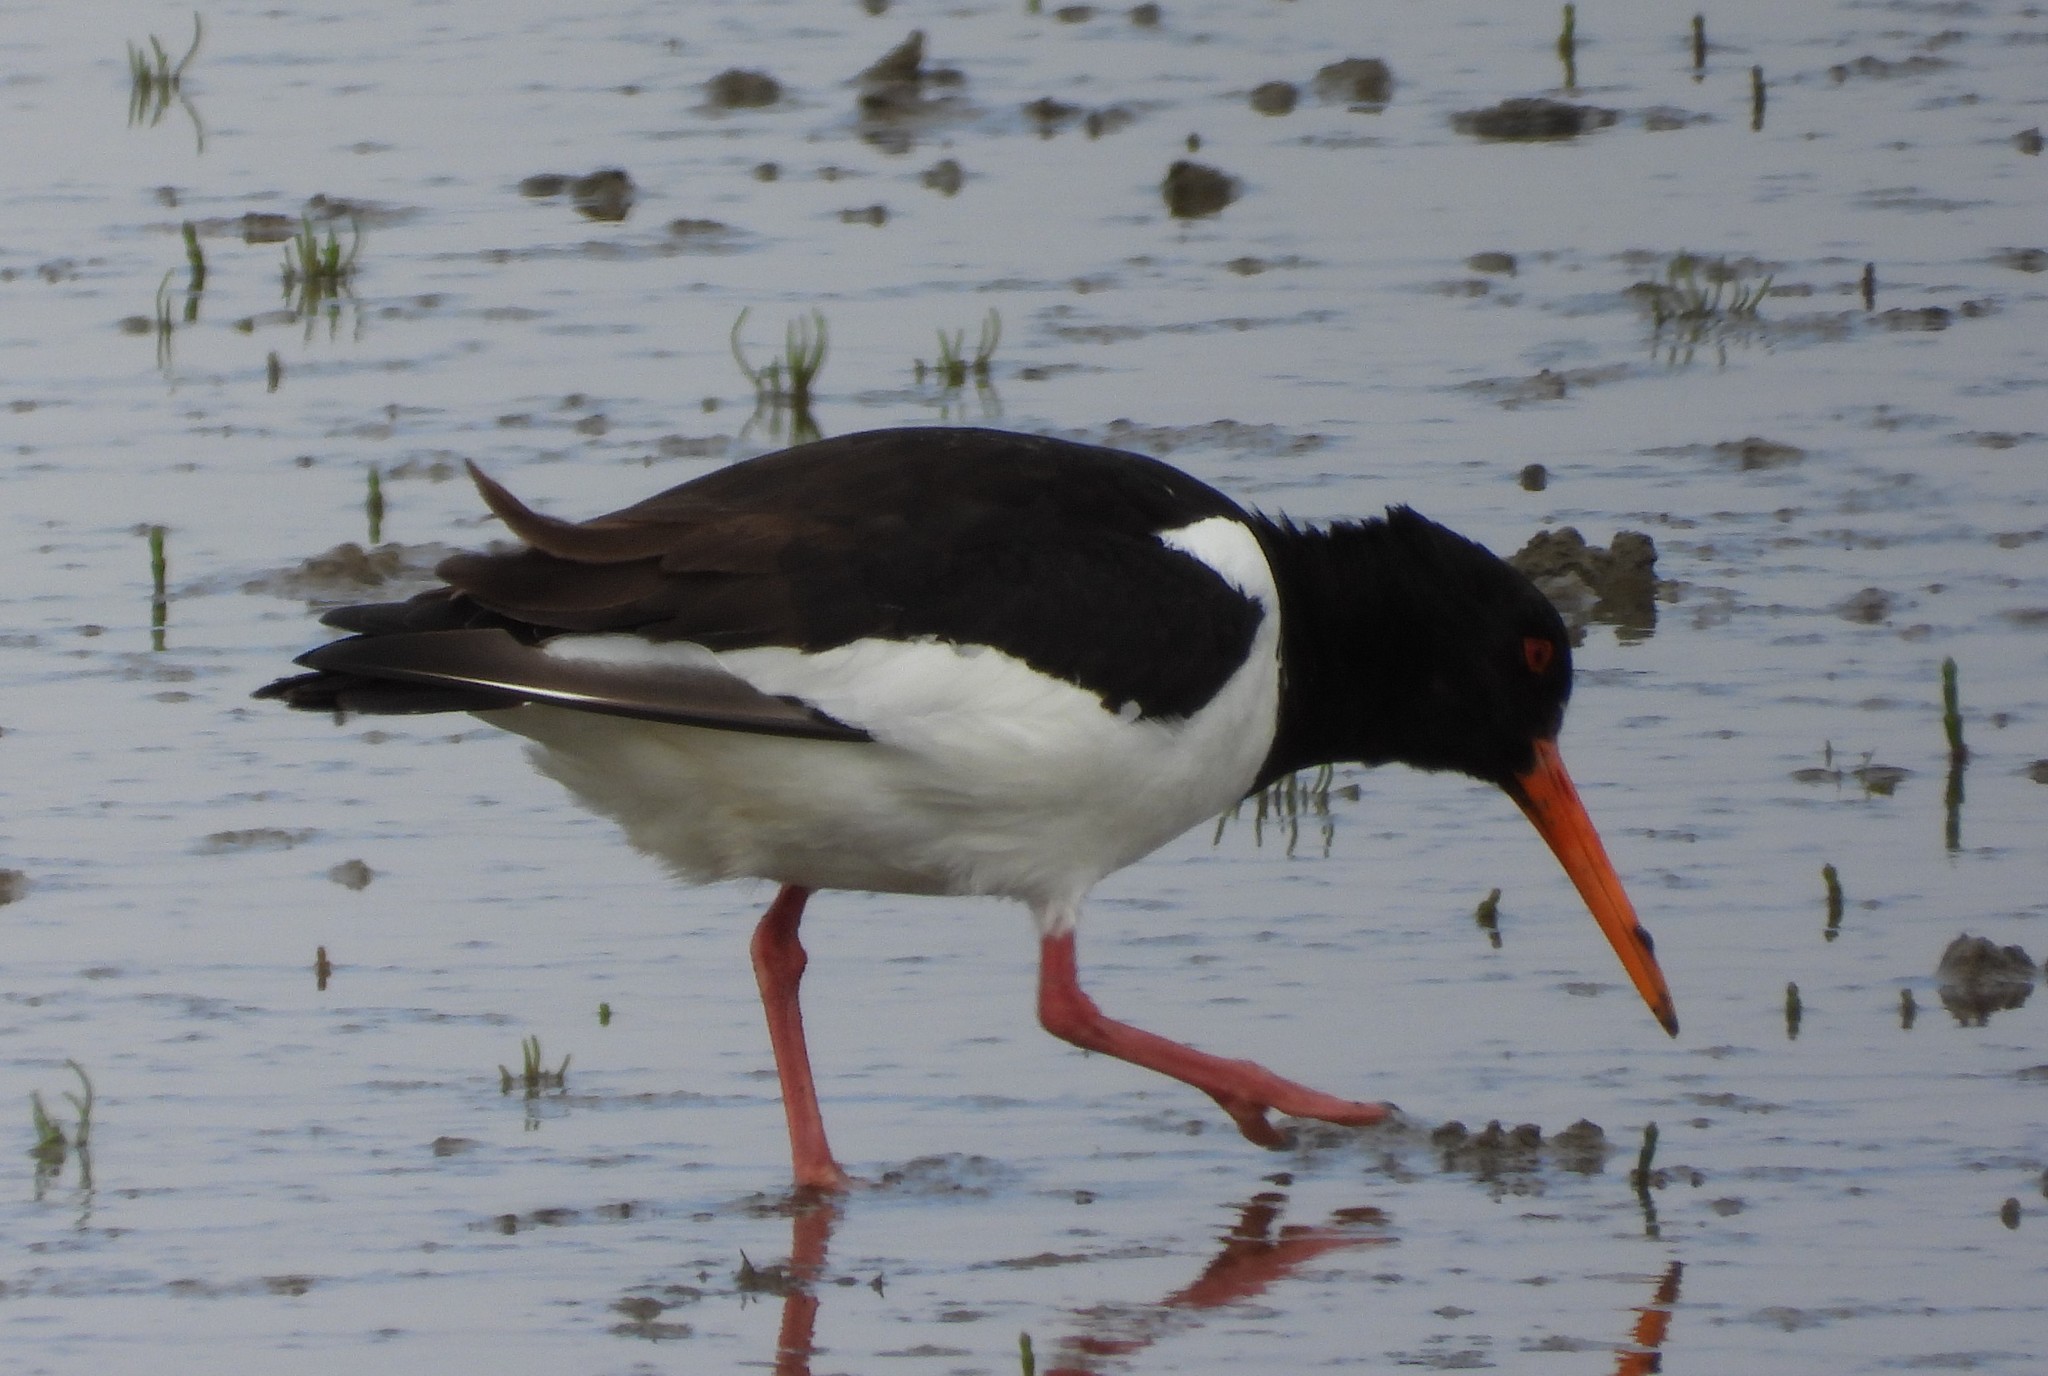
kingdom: Animalia
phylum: Chordata
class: Aves
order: Charadriiformes
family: Haematopodidae
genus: Haematopus
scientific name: Haematopus ostralegus
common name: Eurasian oystercatcher
